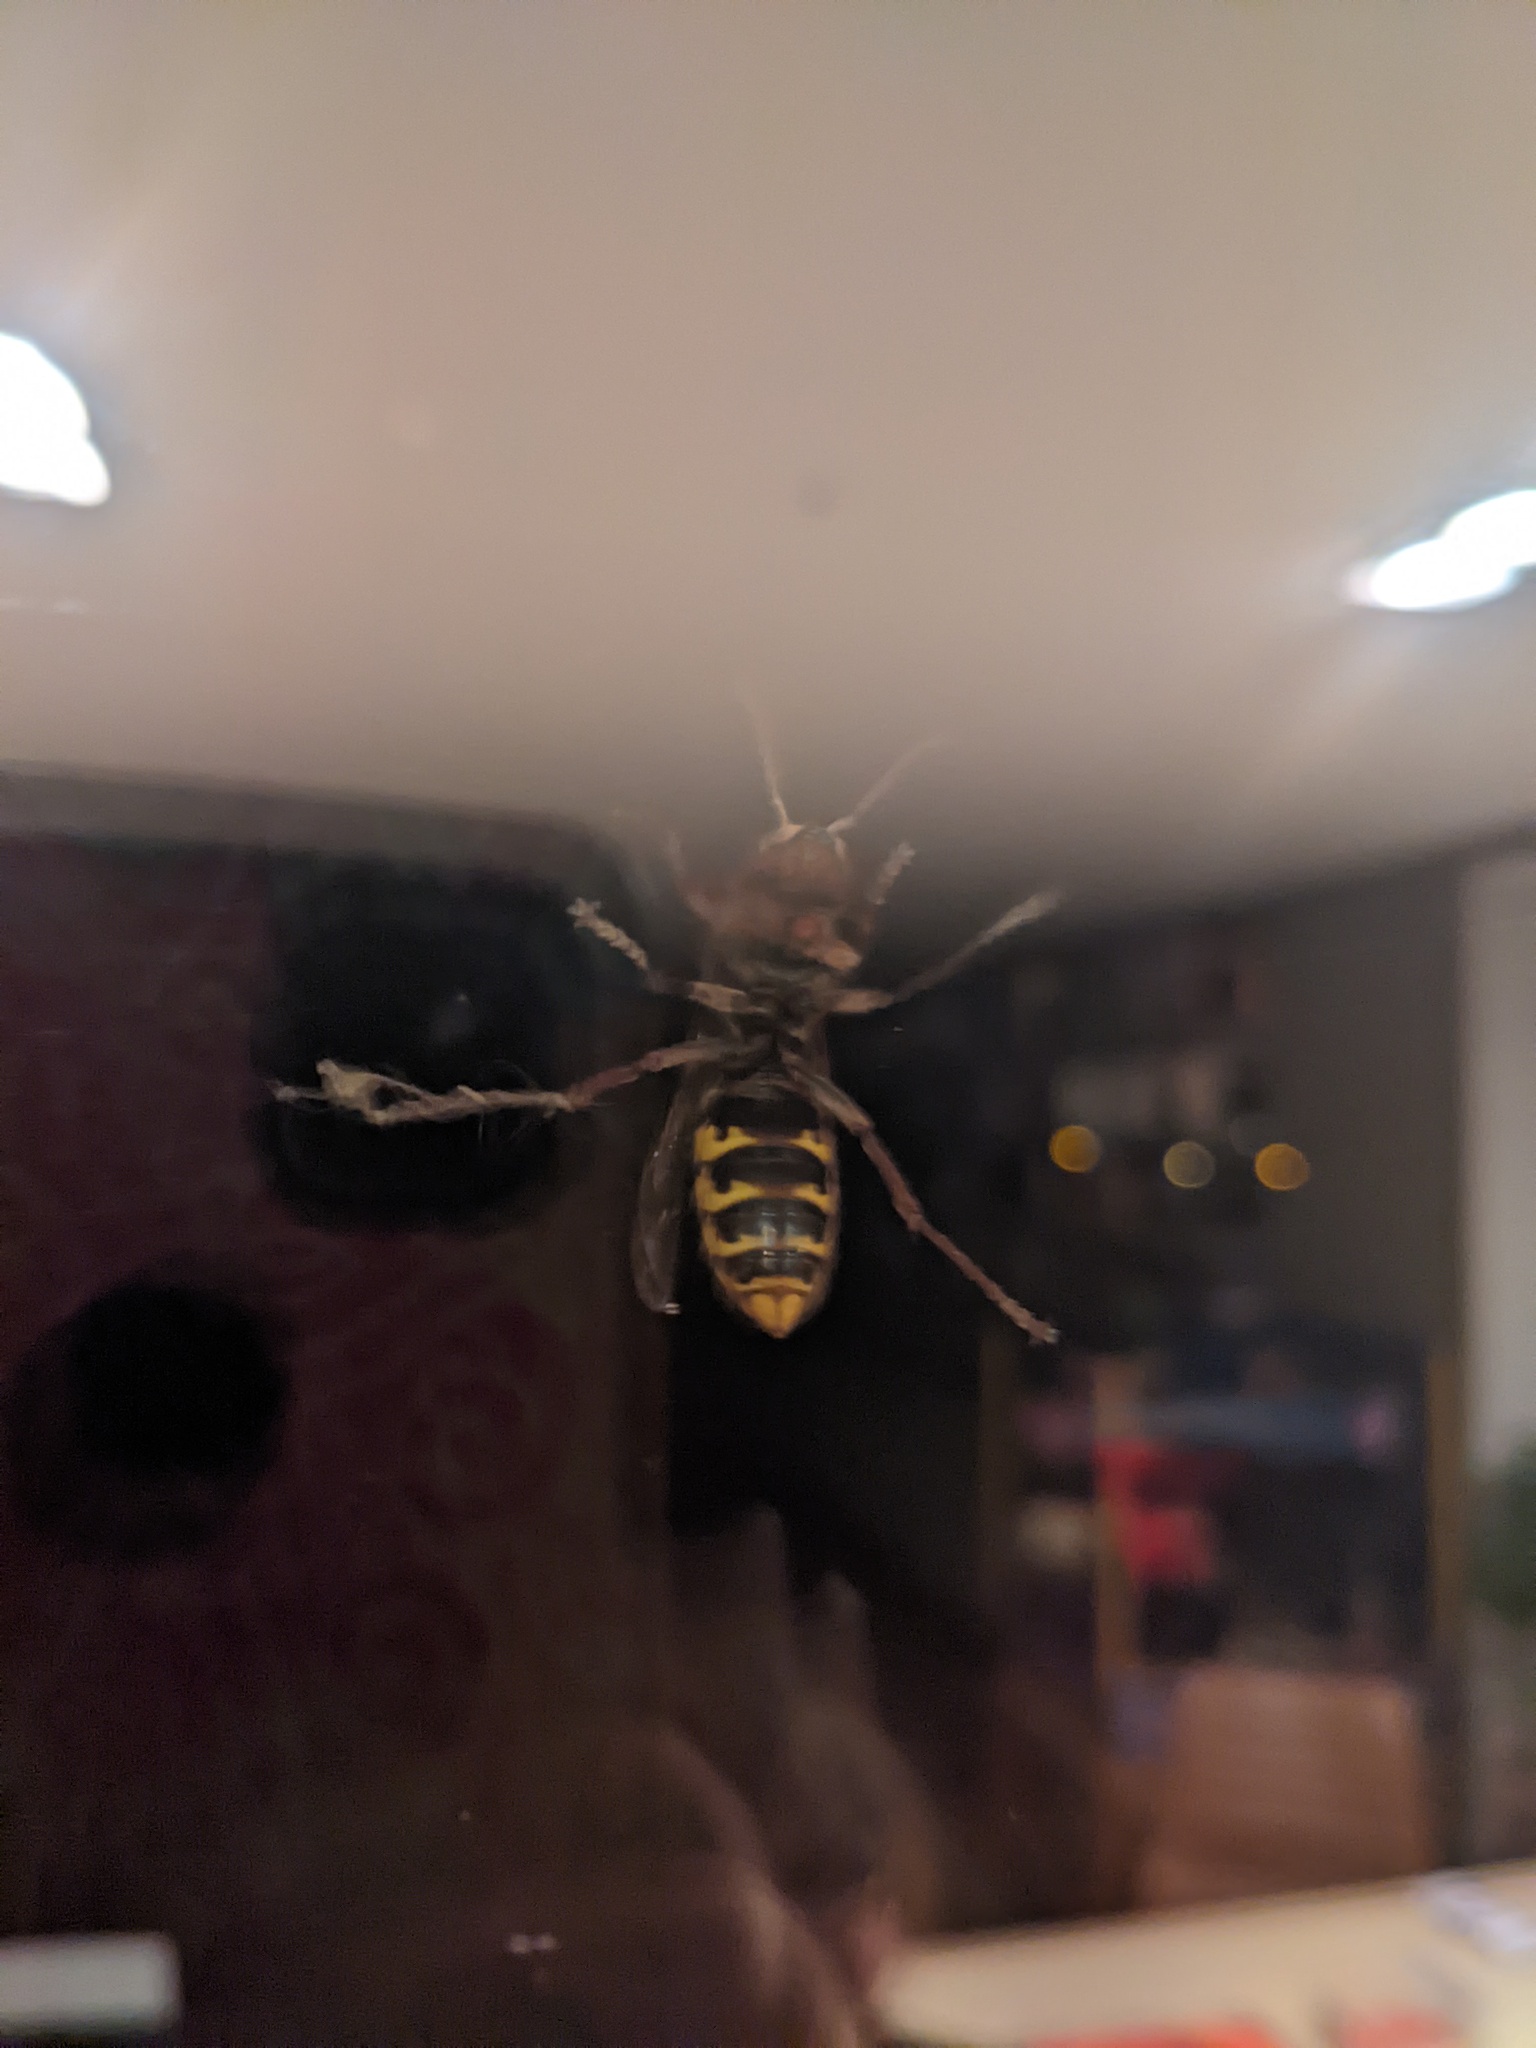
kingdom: Animalia
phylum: Arthropoda
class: Insecta
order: Hymenoptera
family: Vespidae
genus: Vespa
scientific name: Vespa crabro
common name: Hornet
